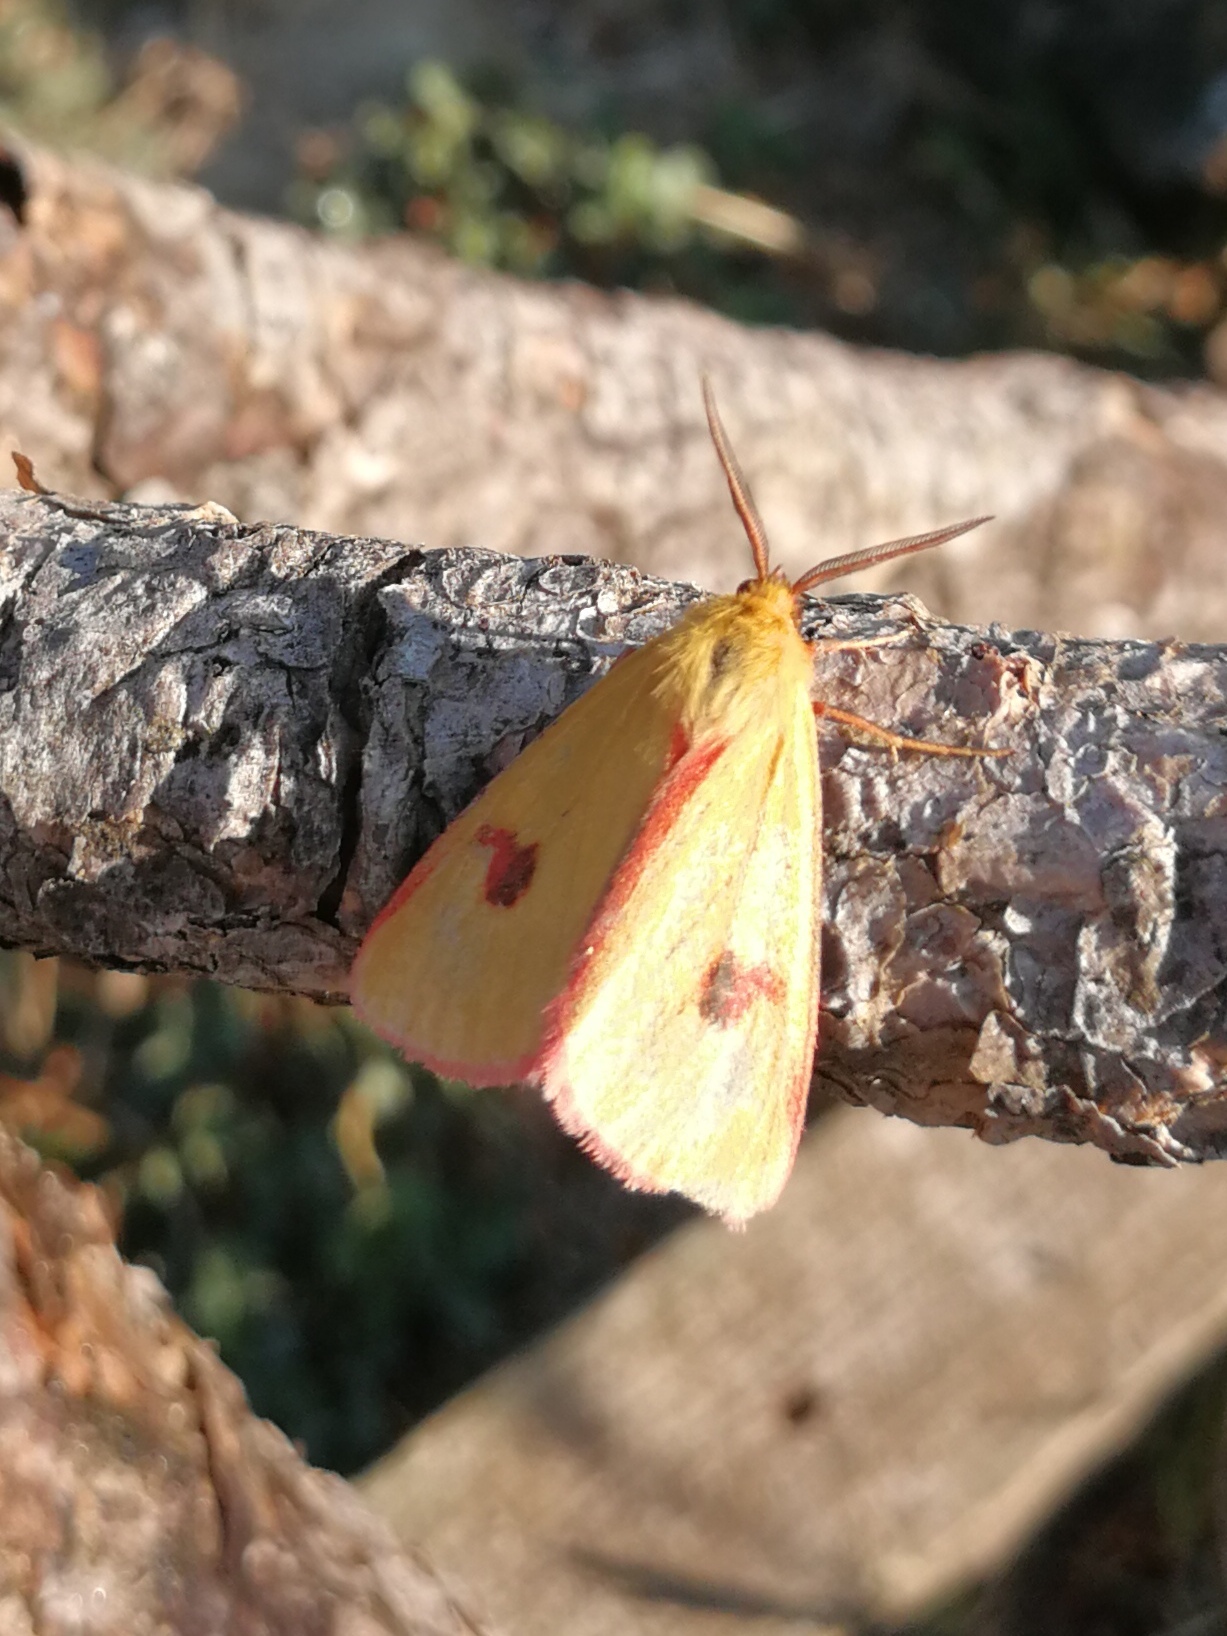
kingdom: Animalia
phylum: Arthropoda
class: Insecta
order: Lepidoptera
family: Erebidae
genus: Diacrisia
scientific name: Diacrisia sannio
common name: Clouded buff
